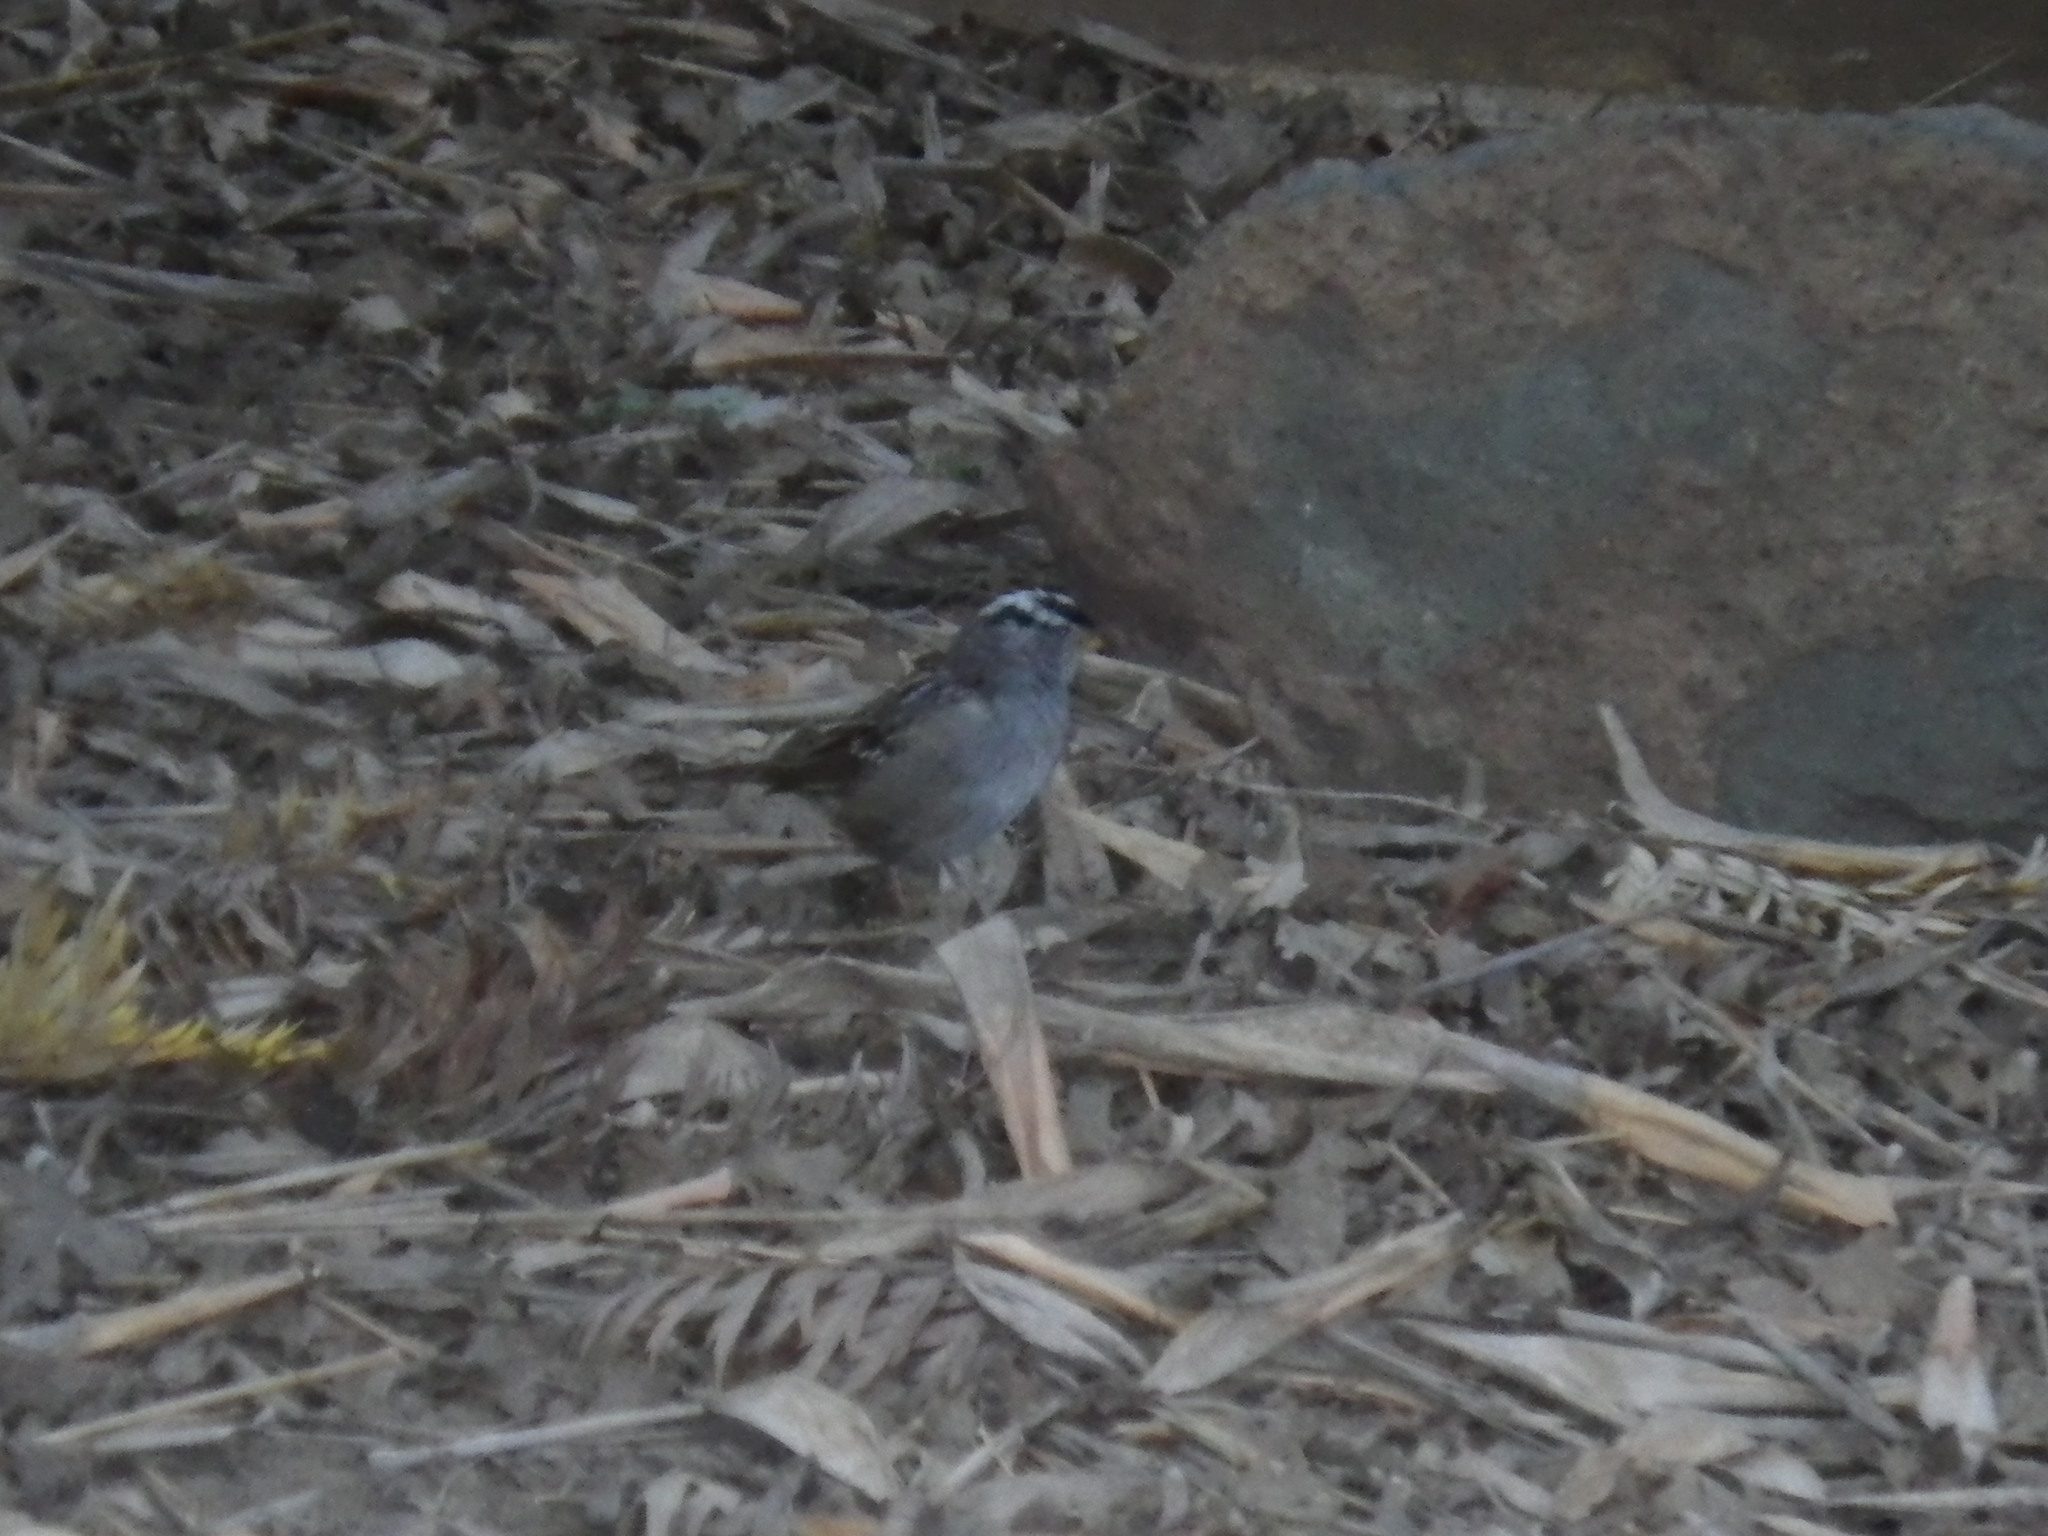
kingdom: Animalia
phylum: Chordata
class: Aves
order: Passeriformes
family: Passerellidae
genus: Zonotrichia
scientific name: Zonotrichia leucophrys
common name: White-crowned sparrow
